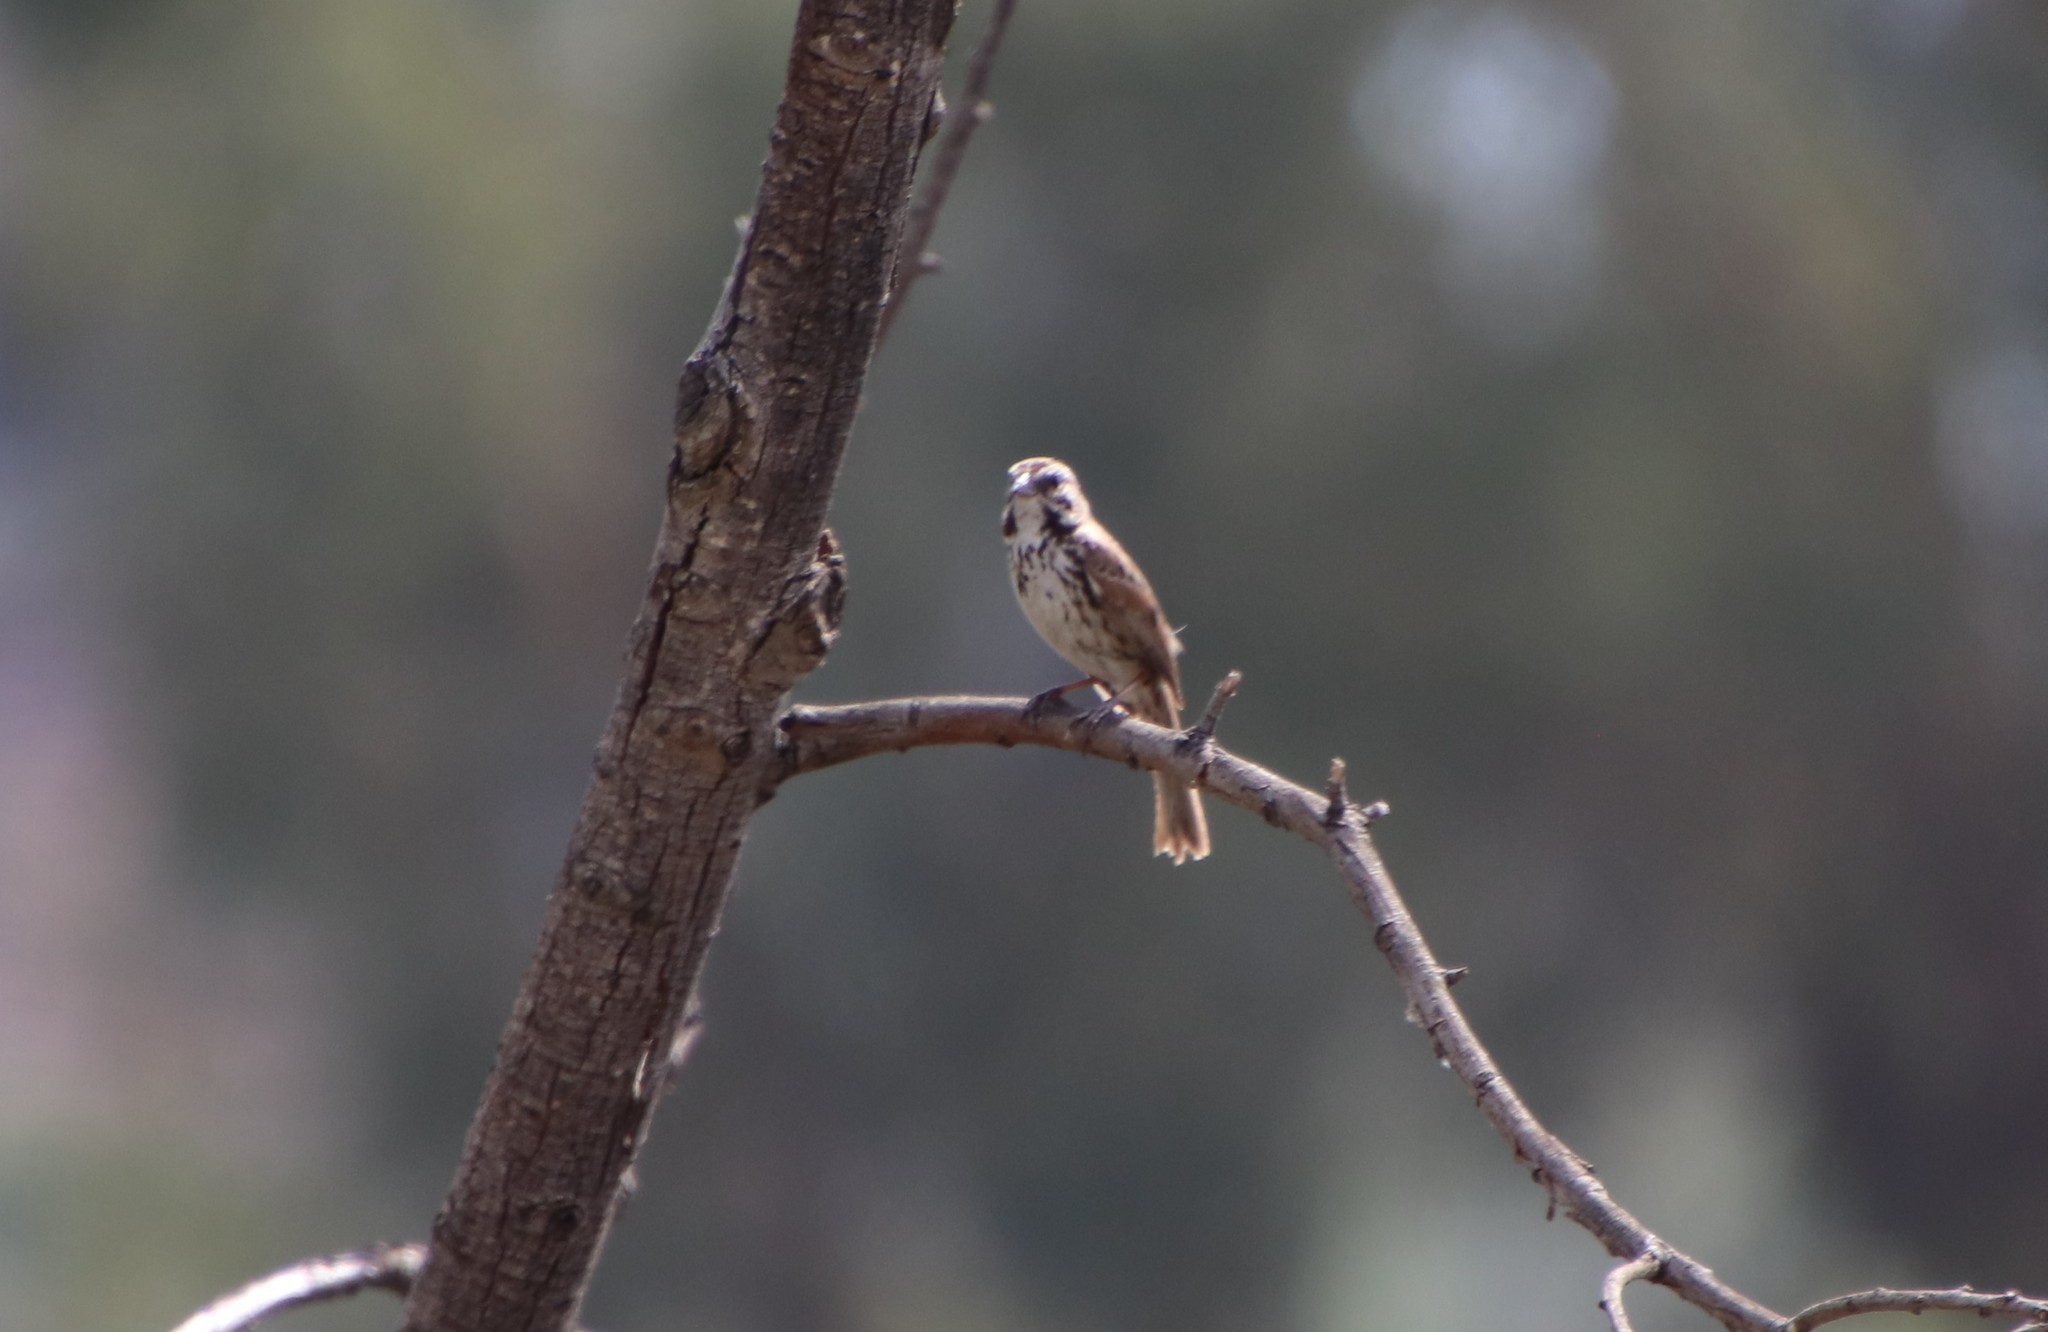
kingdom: Animalia
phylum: Chordata
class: Aves
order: Passeriformes
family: Passerellidae
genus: Melospiza
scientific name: Melospiza melodia
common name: Song sparrow
